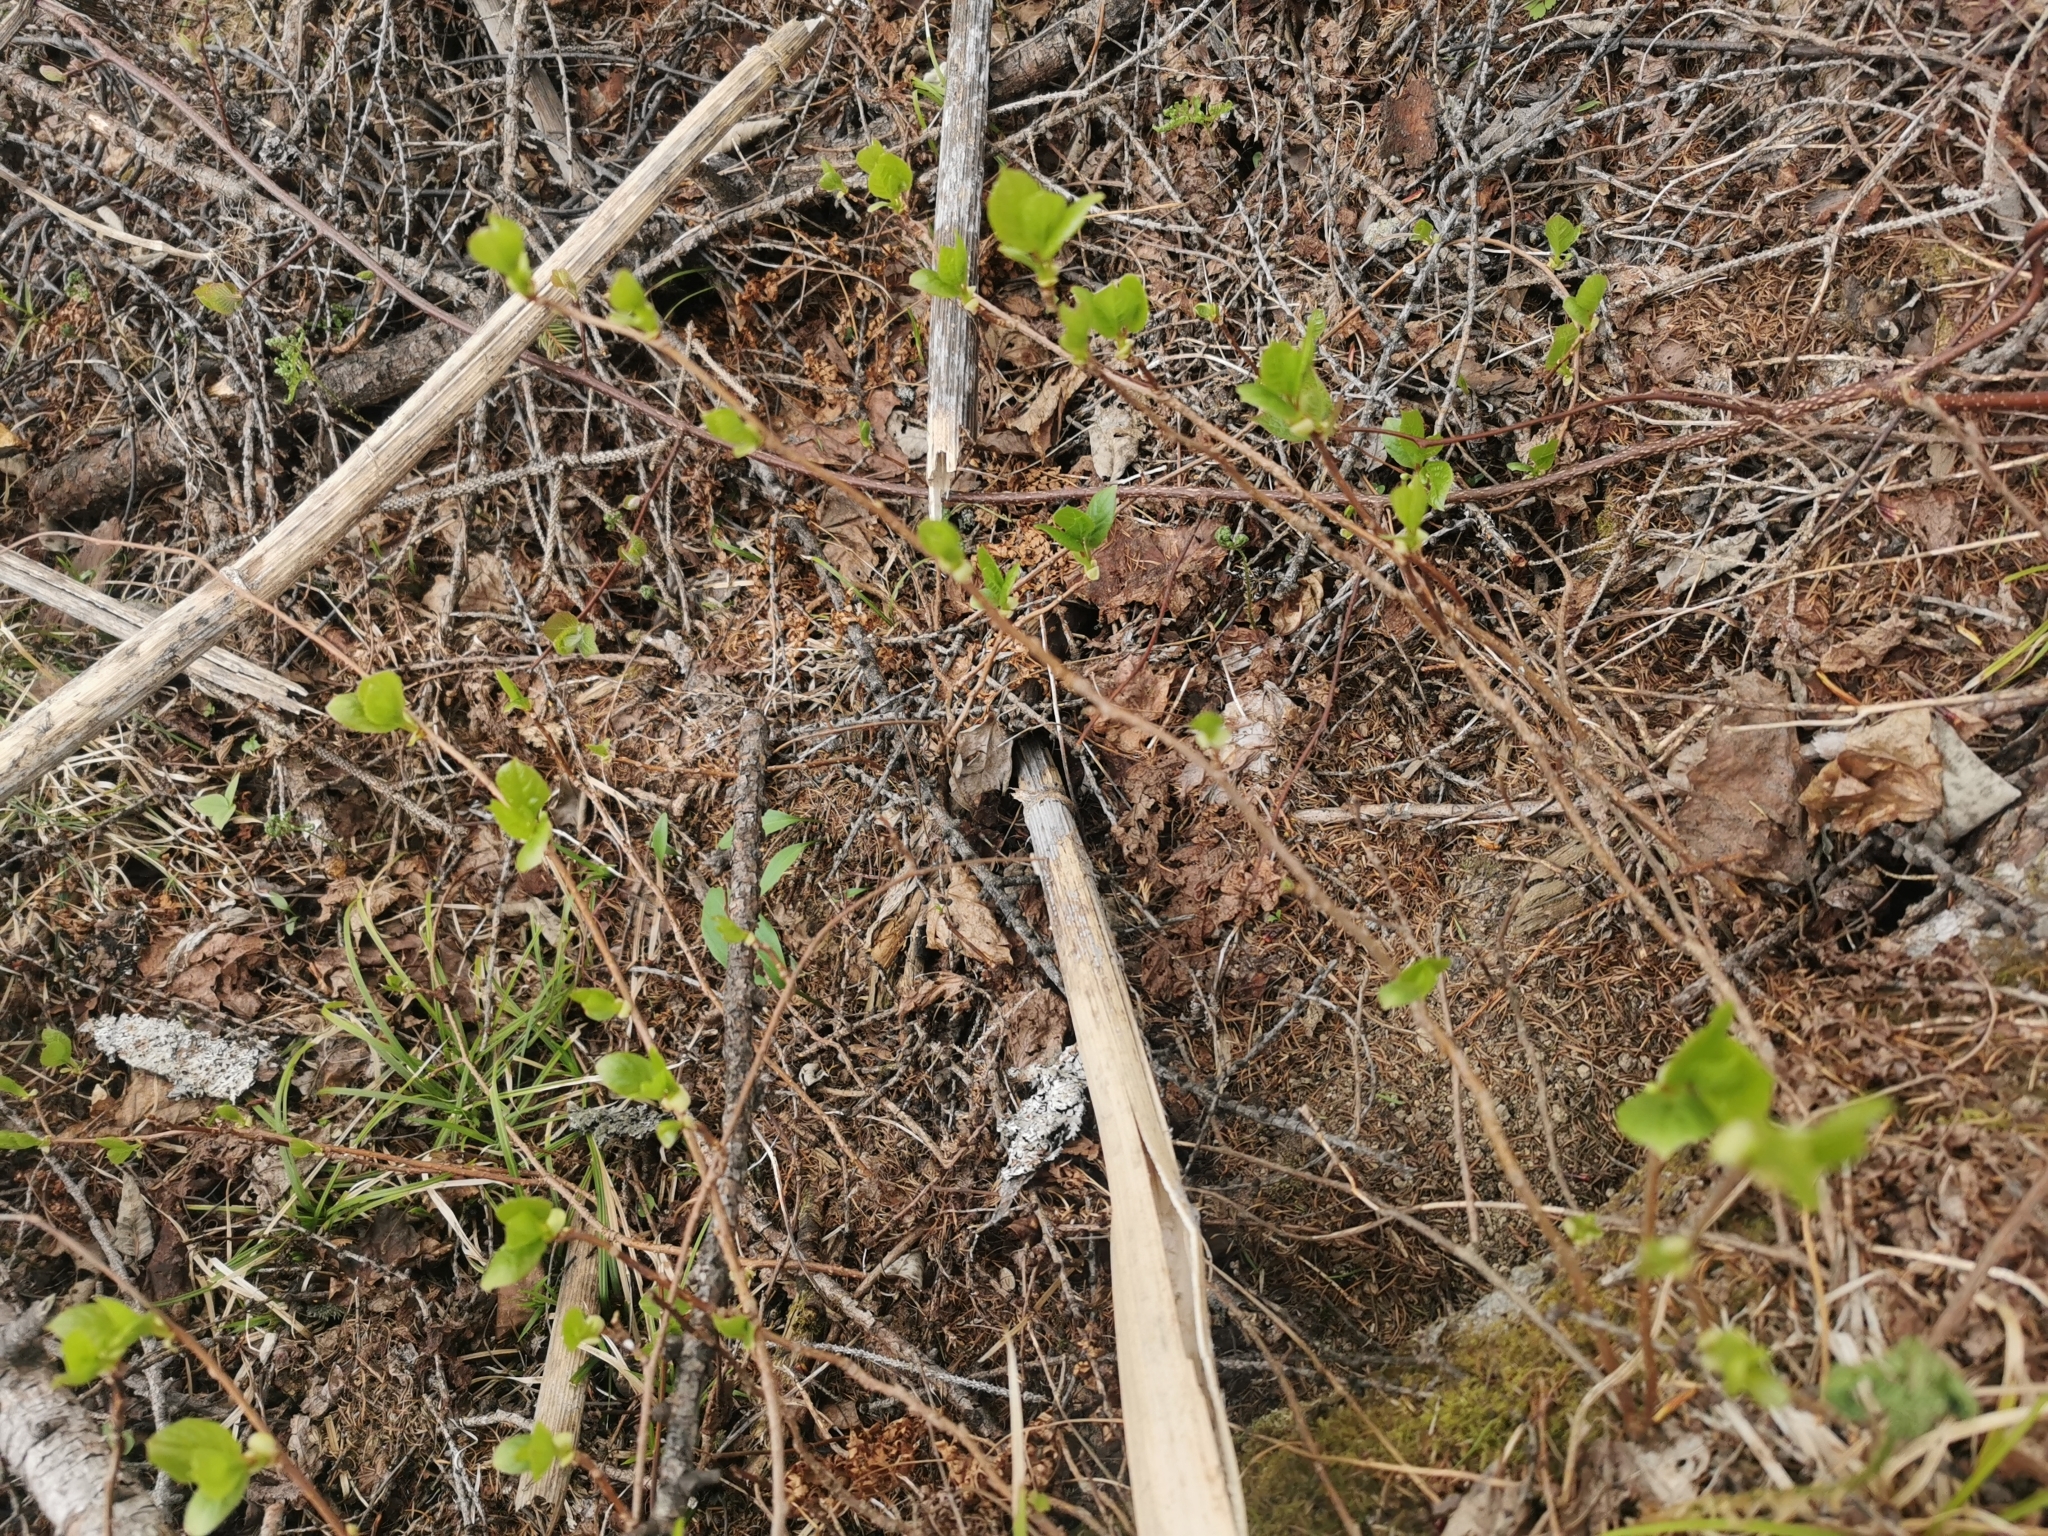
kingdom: Plantae
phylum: Tracheophyta
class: Magnoliopsida
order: Austrobaileyales
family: Schisandraceae
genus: Schisandra
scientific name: Schisandra chinensis
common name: Magnolia-vine
